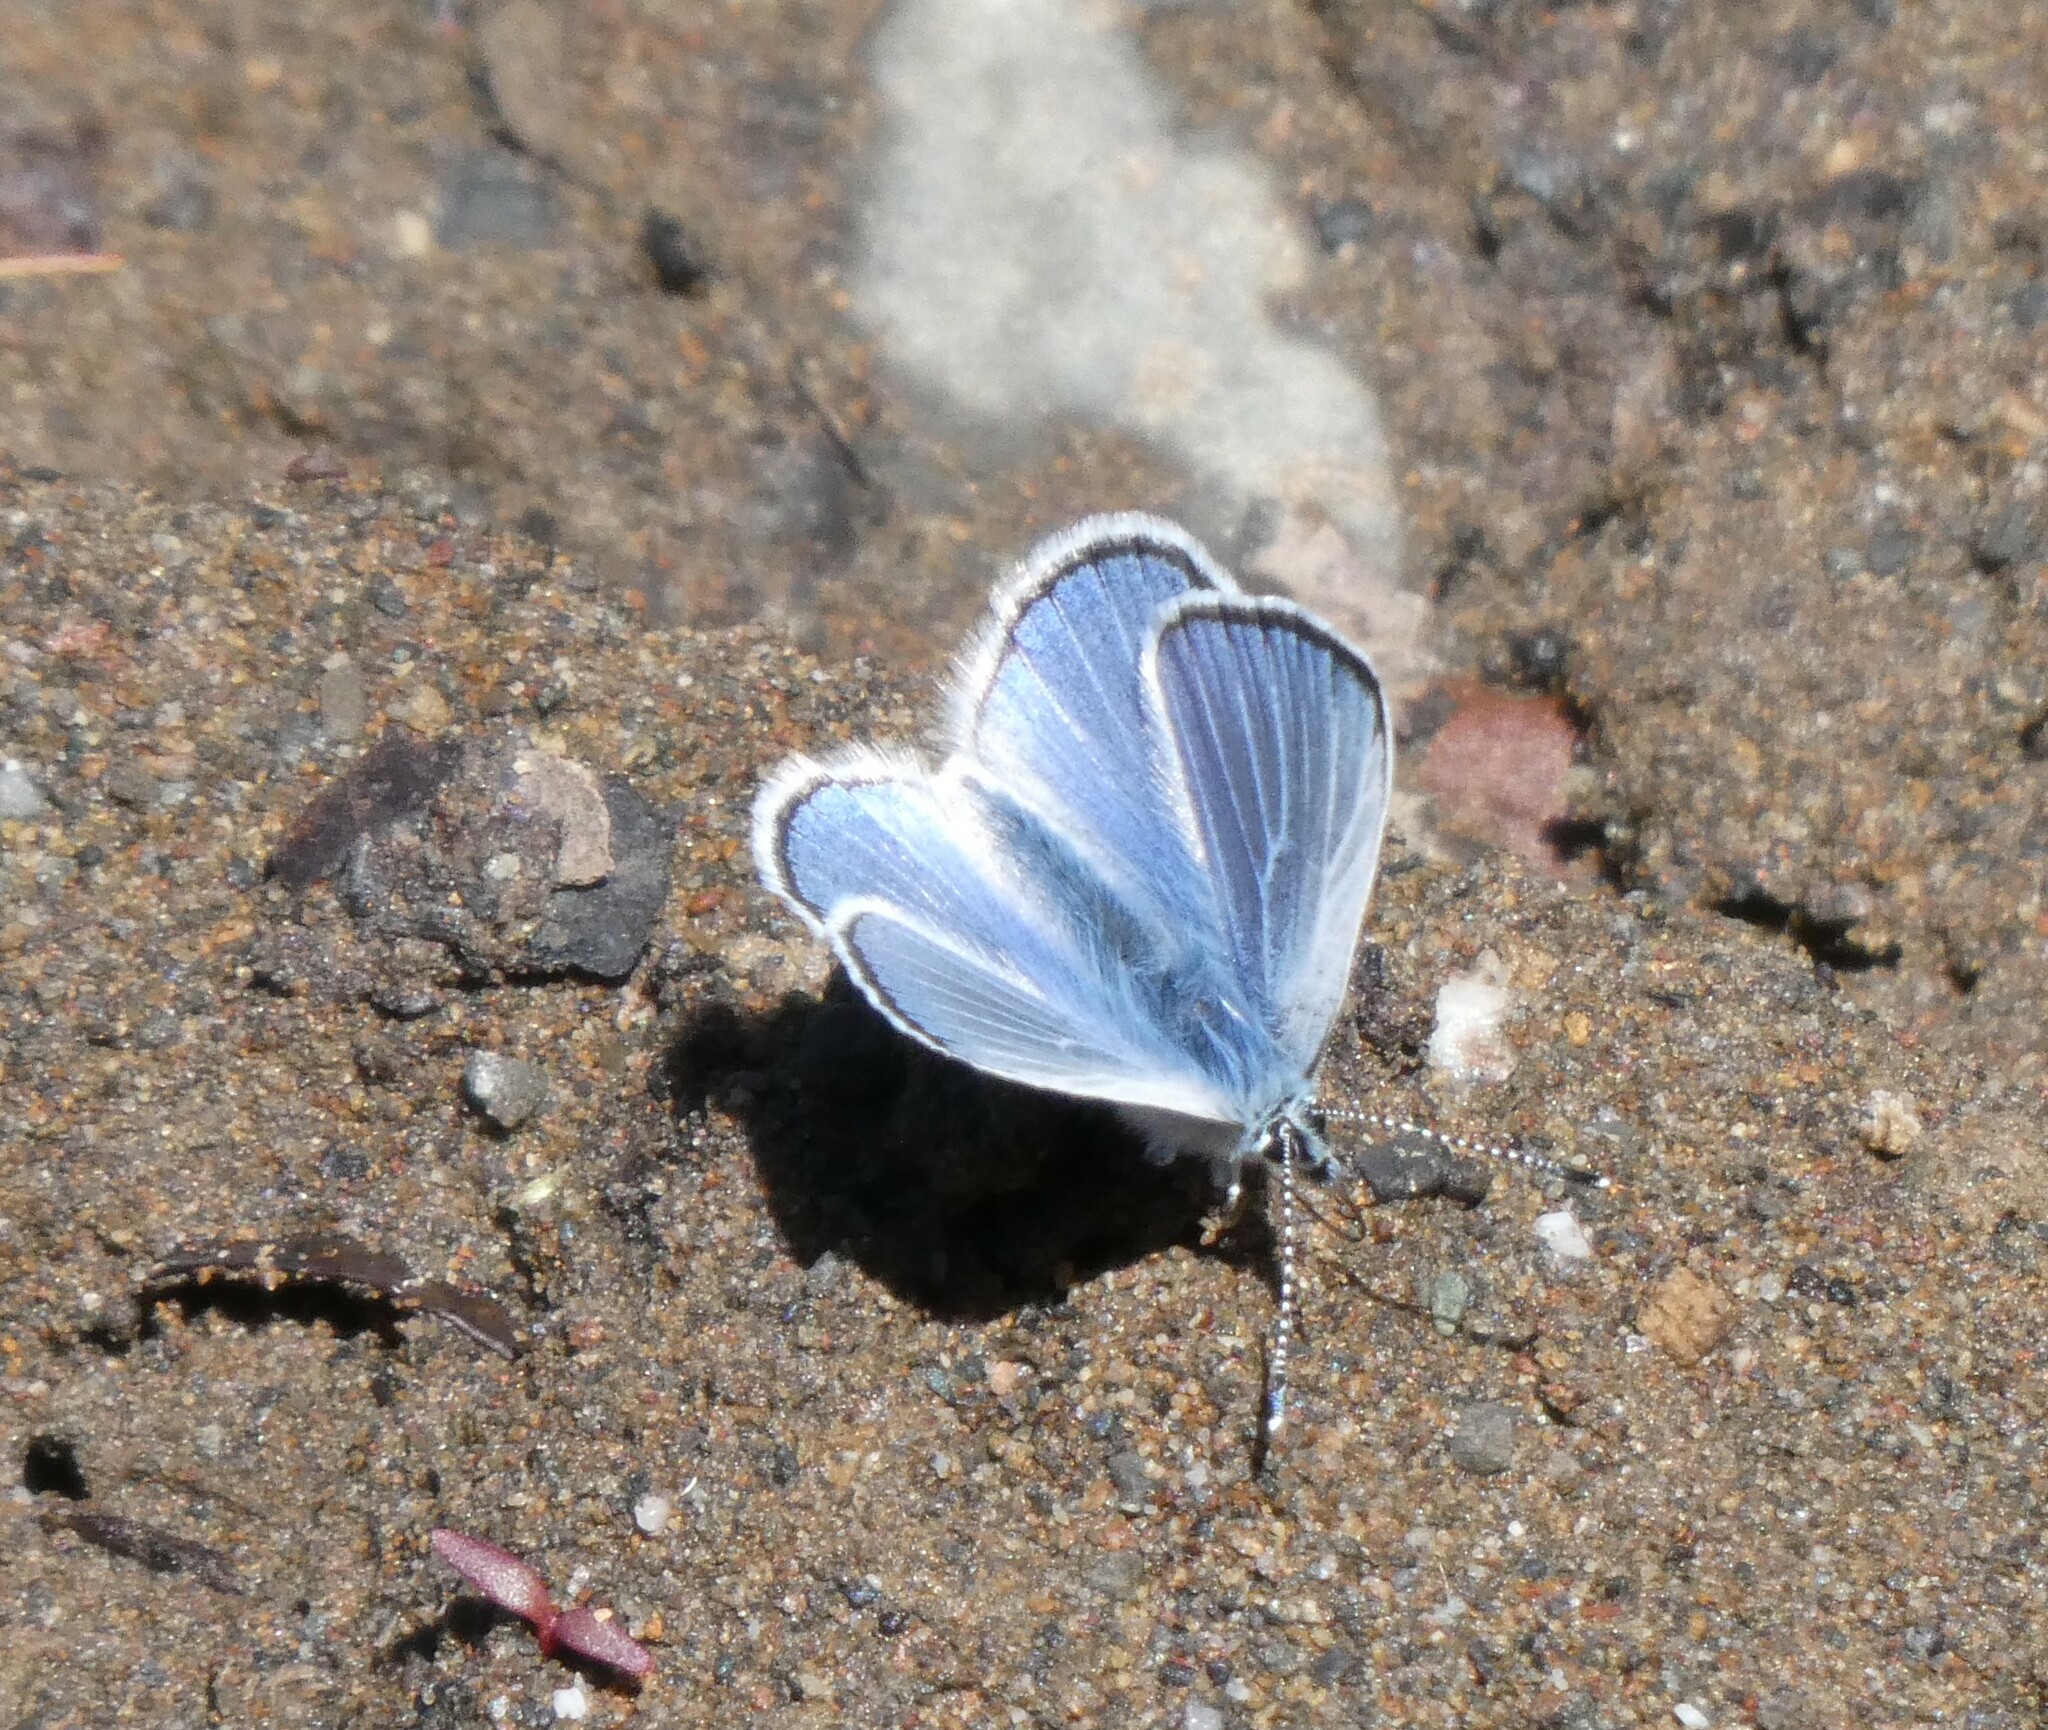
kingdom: Animalia
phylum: Arthropoda
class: Insecta
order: Lepidoptera
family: Lycaenidae
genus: Glaucopsyche
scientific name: Glaucopsyche lygdamus
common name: Silvery blue
